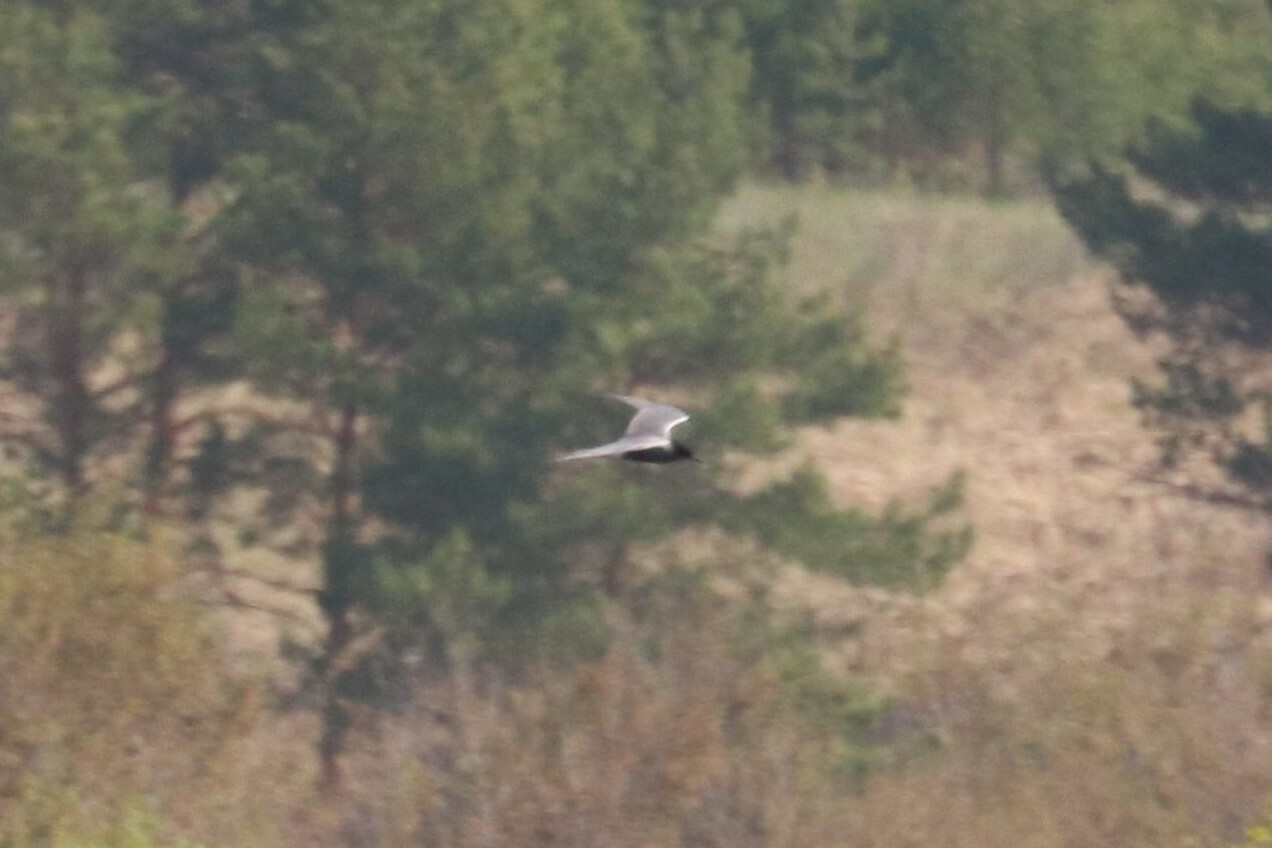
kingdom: Animalia
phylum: Chordata
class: Aves
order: Charadriiformes
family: Laridae
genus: Chlidonias
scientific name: Chlidonias niger
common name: Black tern
